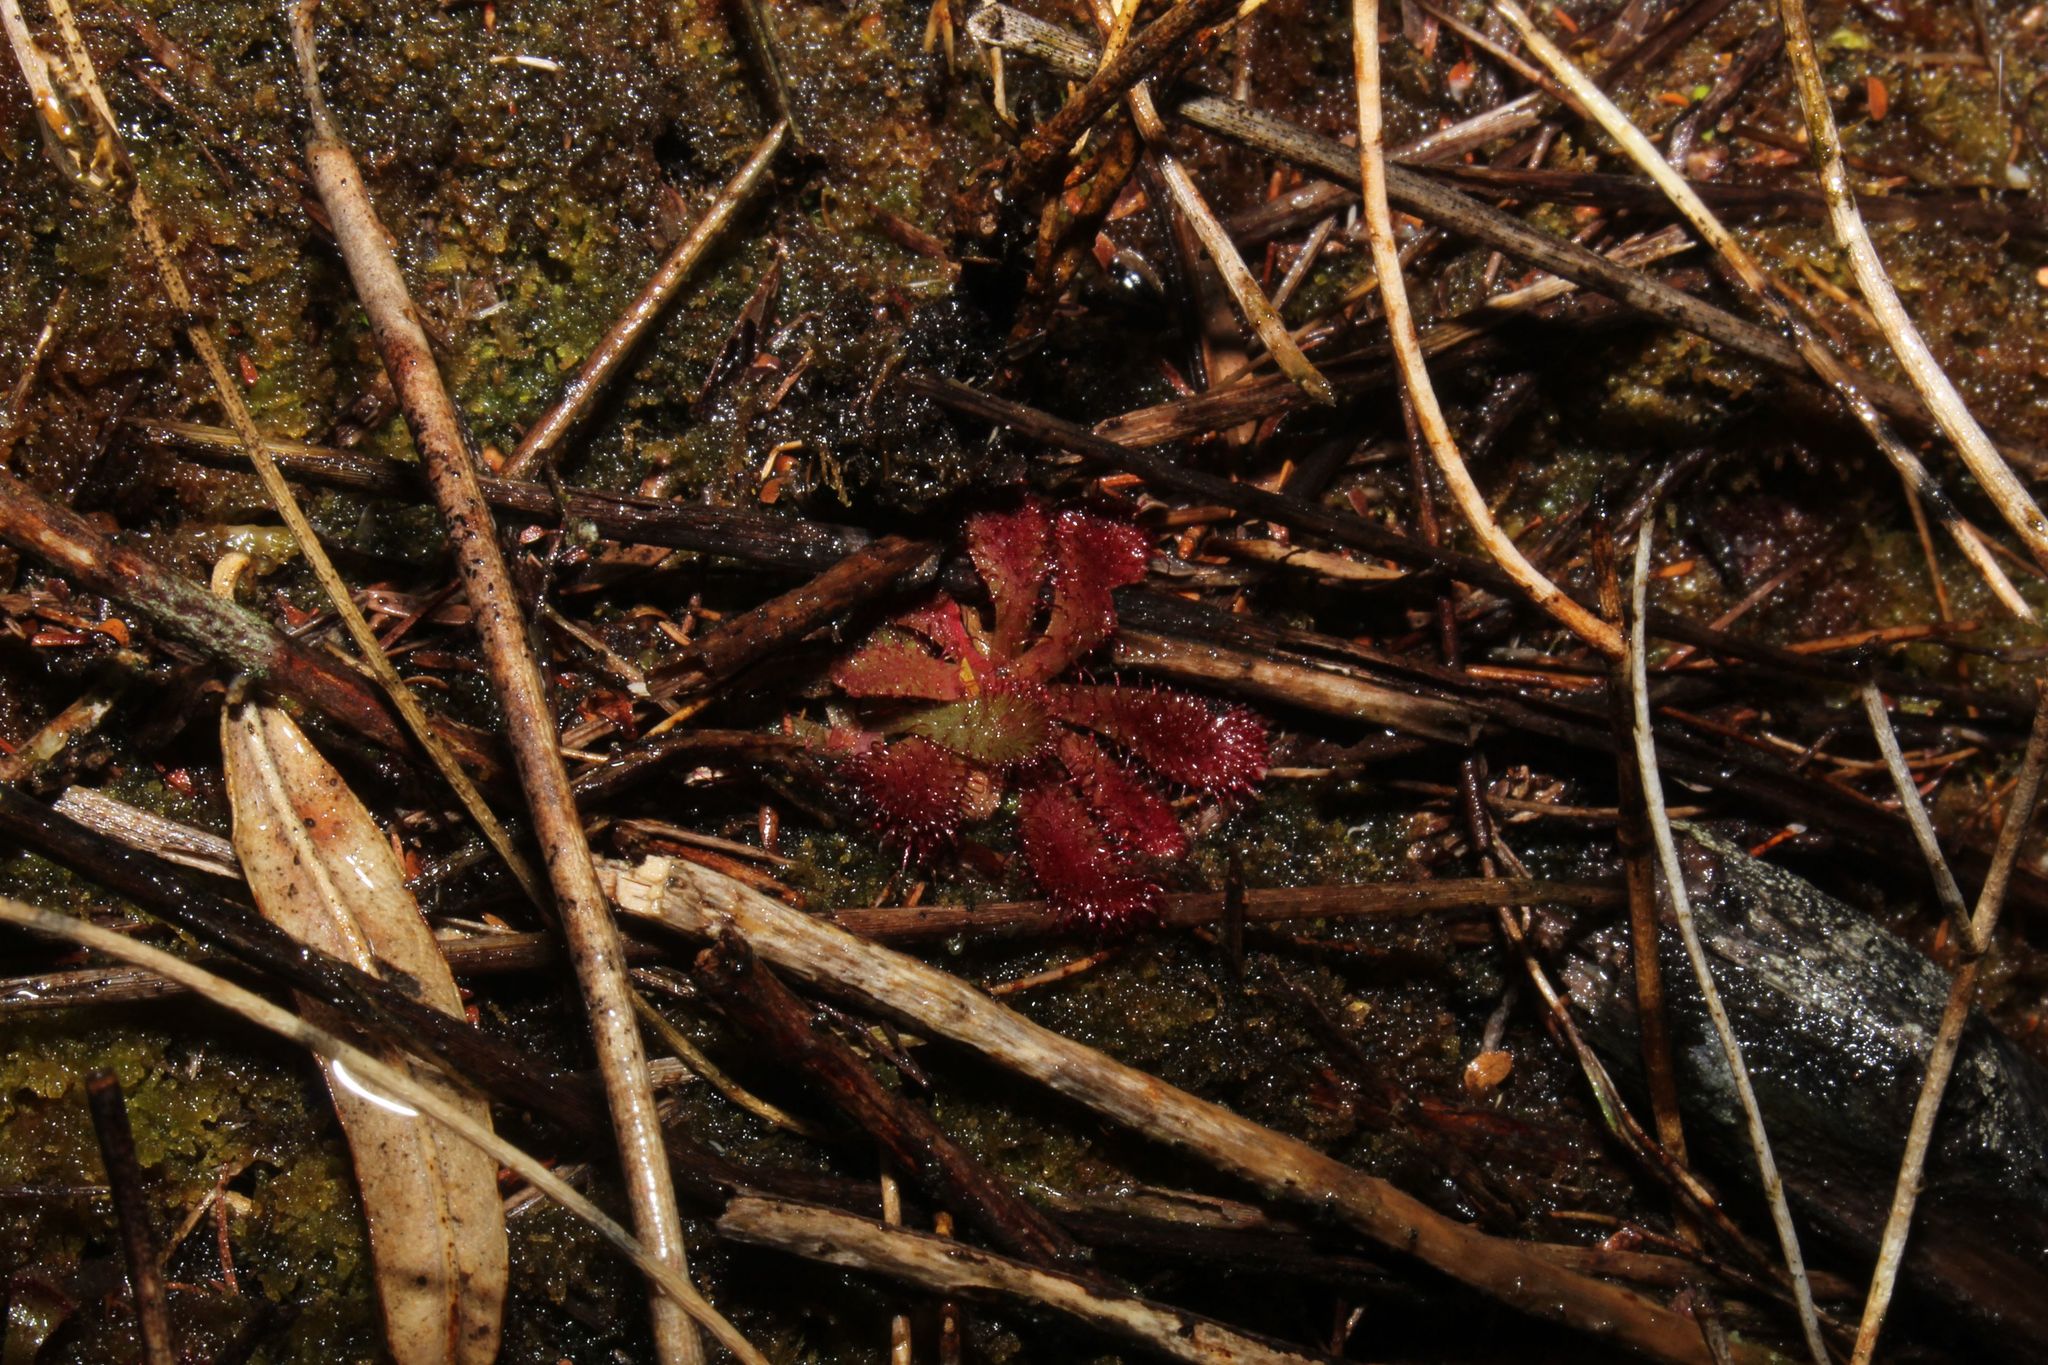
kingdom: Plantae
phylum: Tracheophyta
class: Magnoliopsida
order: Caryophyllales
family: Droseraceae
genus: Drosera
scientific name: Drosera hamiltonii
